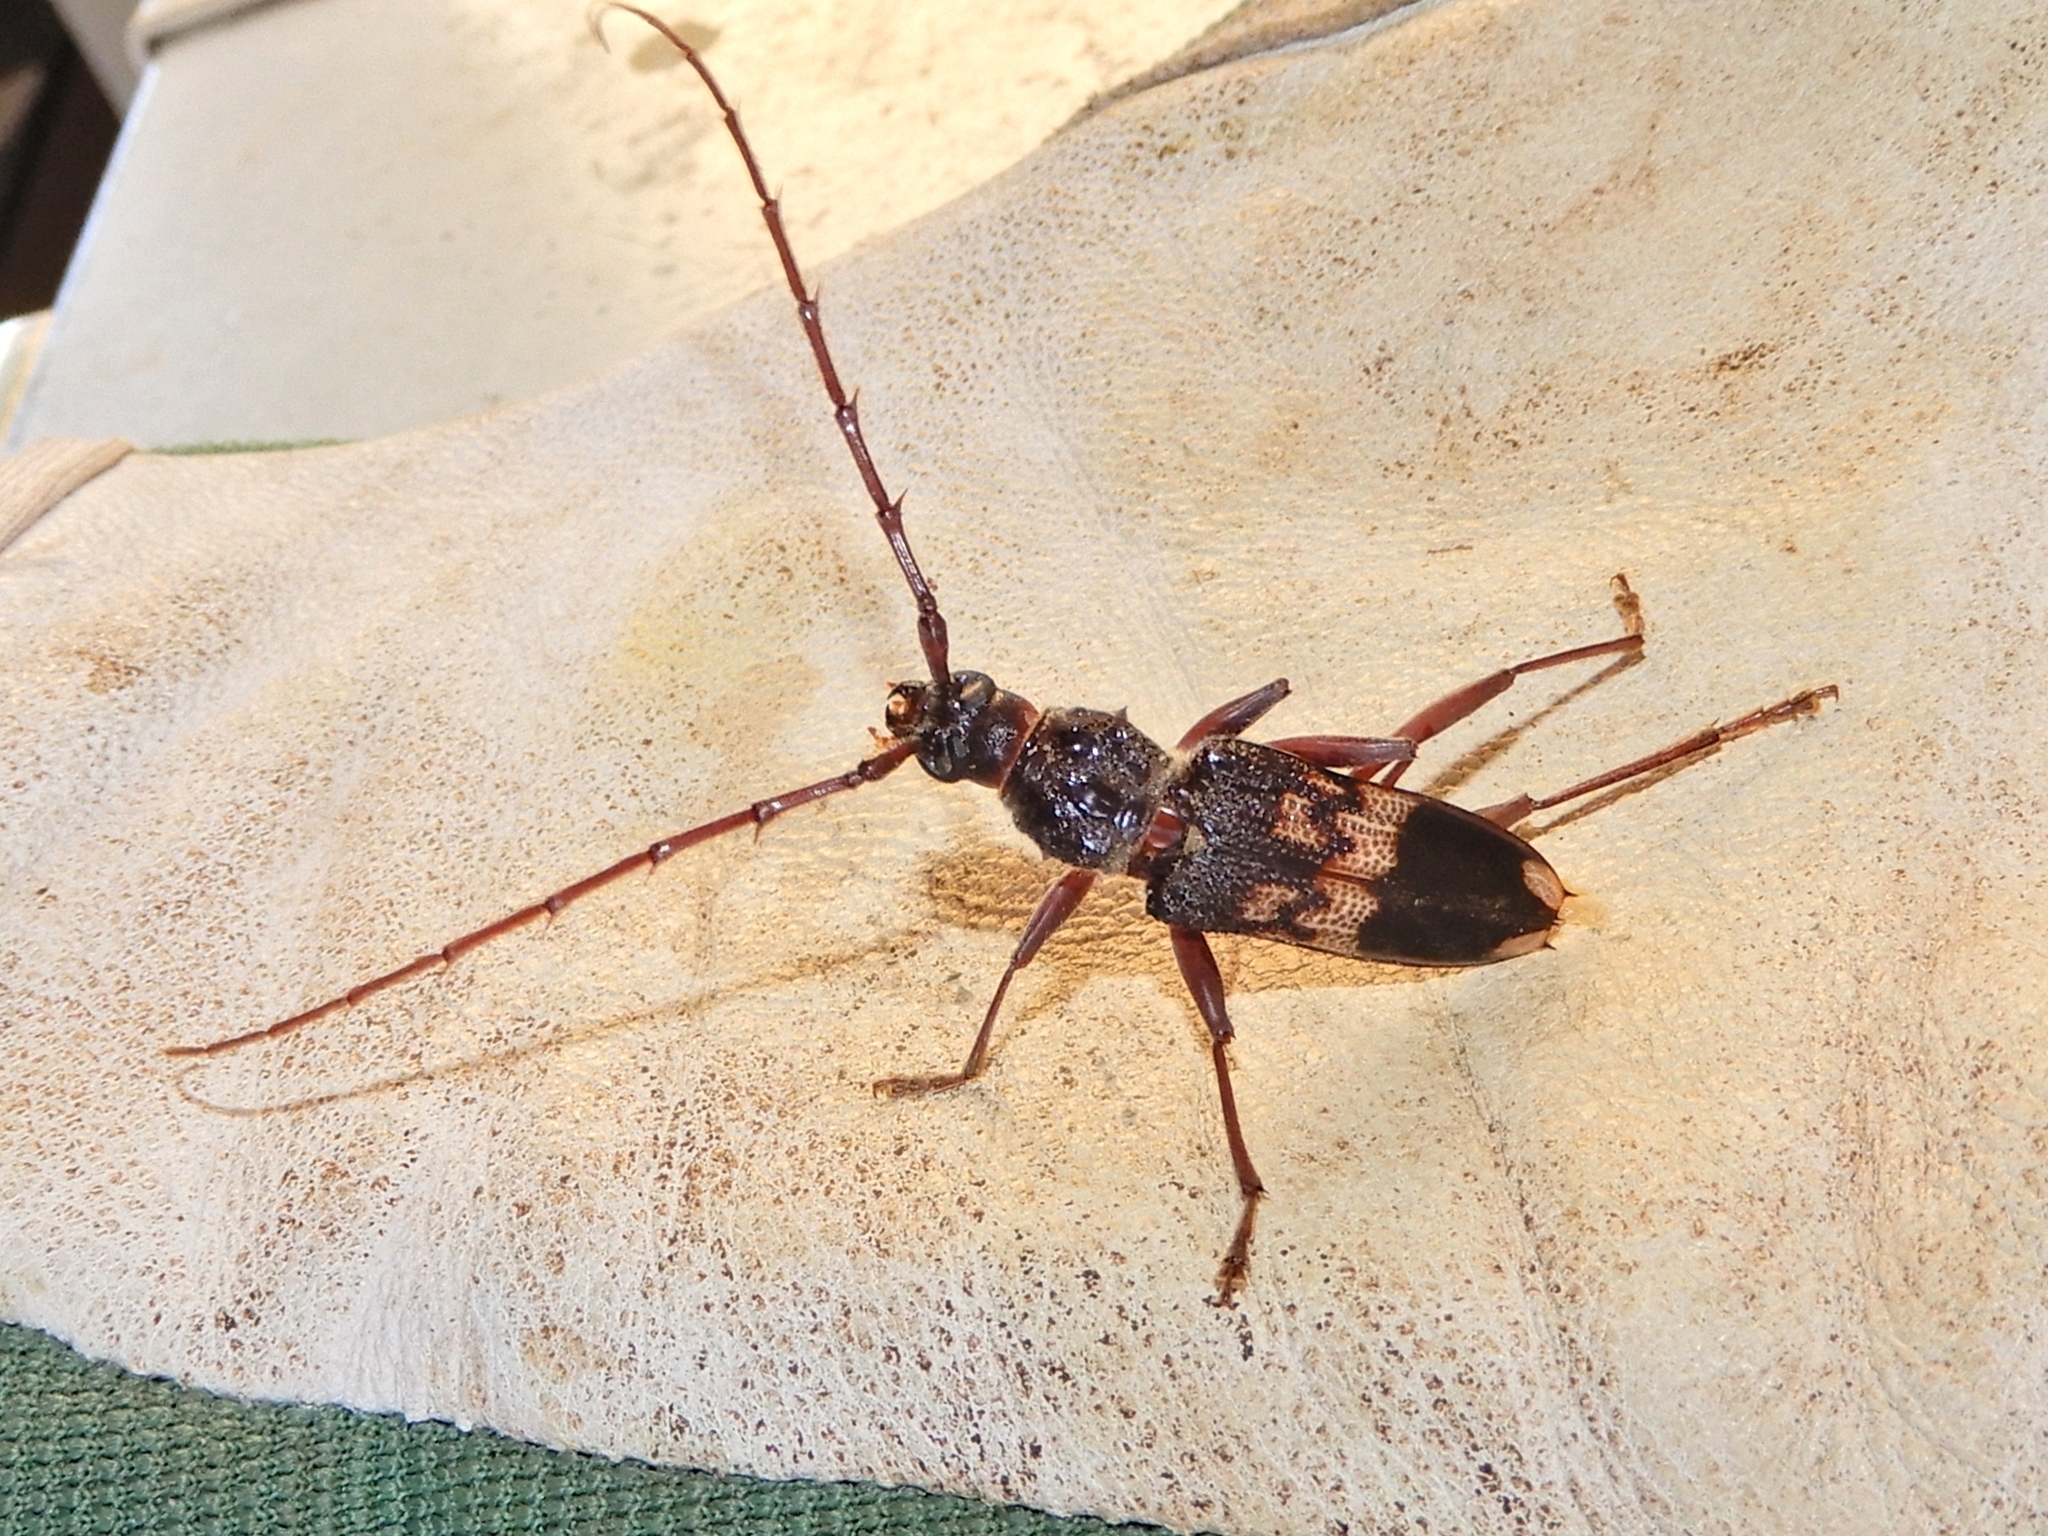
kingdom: Animalia
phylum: Arthropoda
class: Insecta
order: Coleoptera
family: Cerambycidae
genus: Phoracantha
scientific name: Phoracantha semipunctata
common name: Eucalyptus longhorn borer
